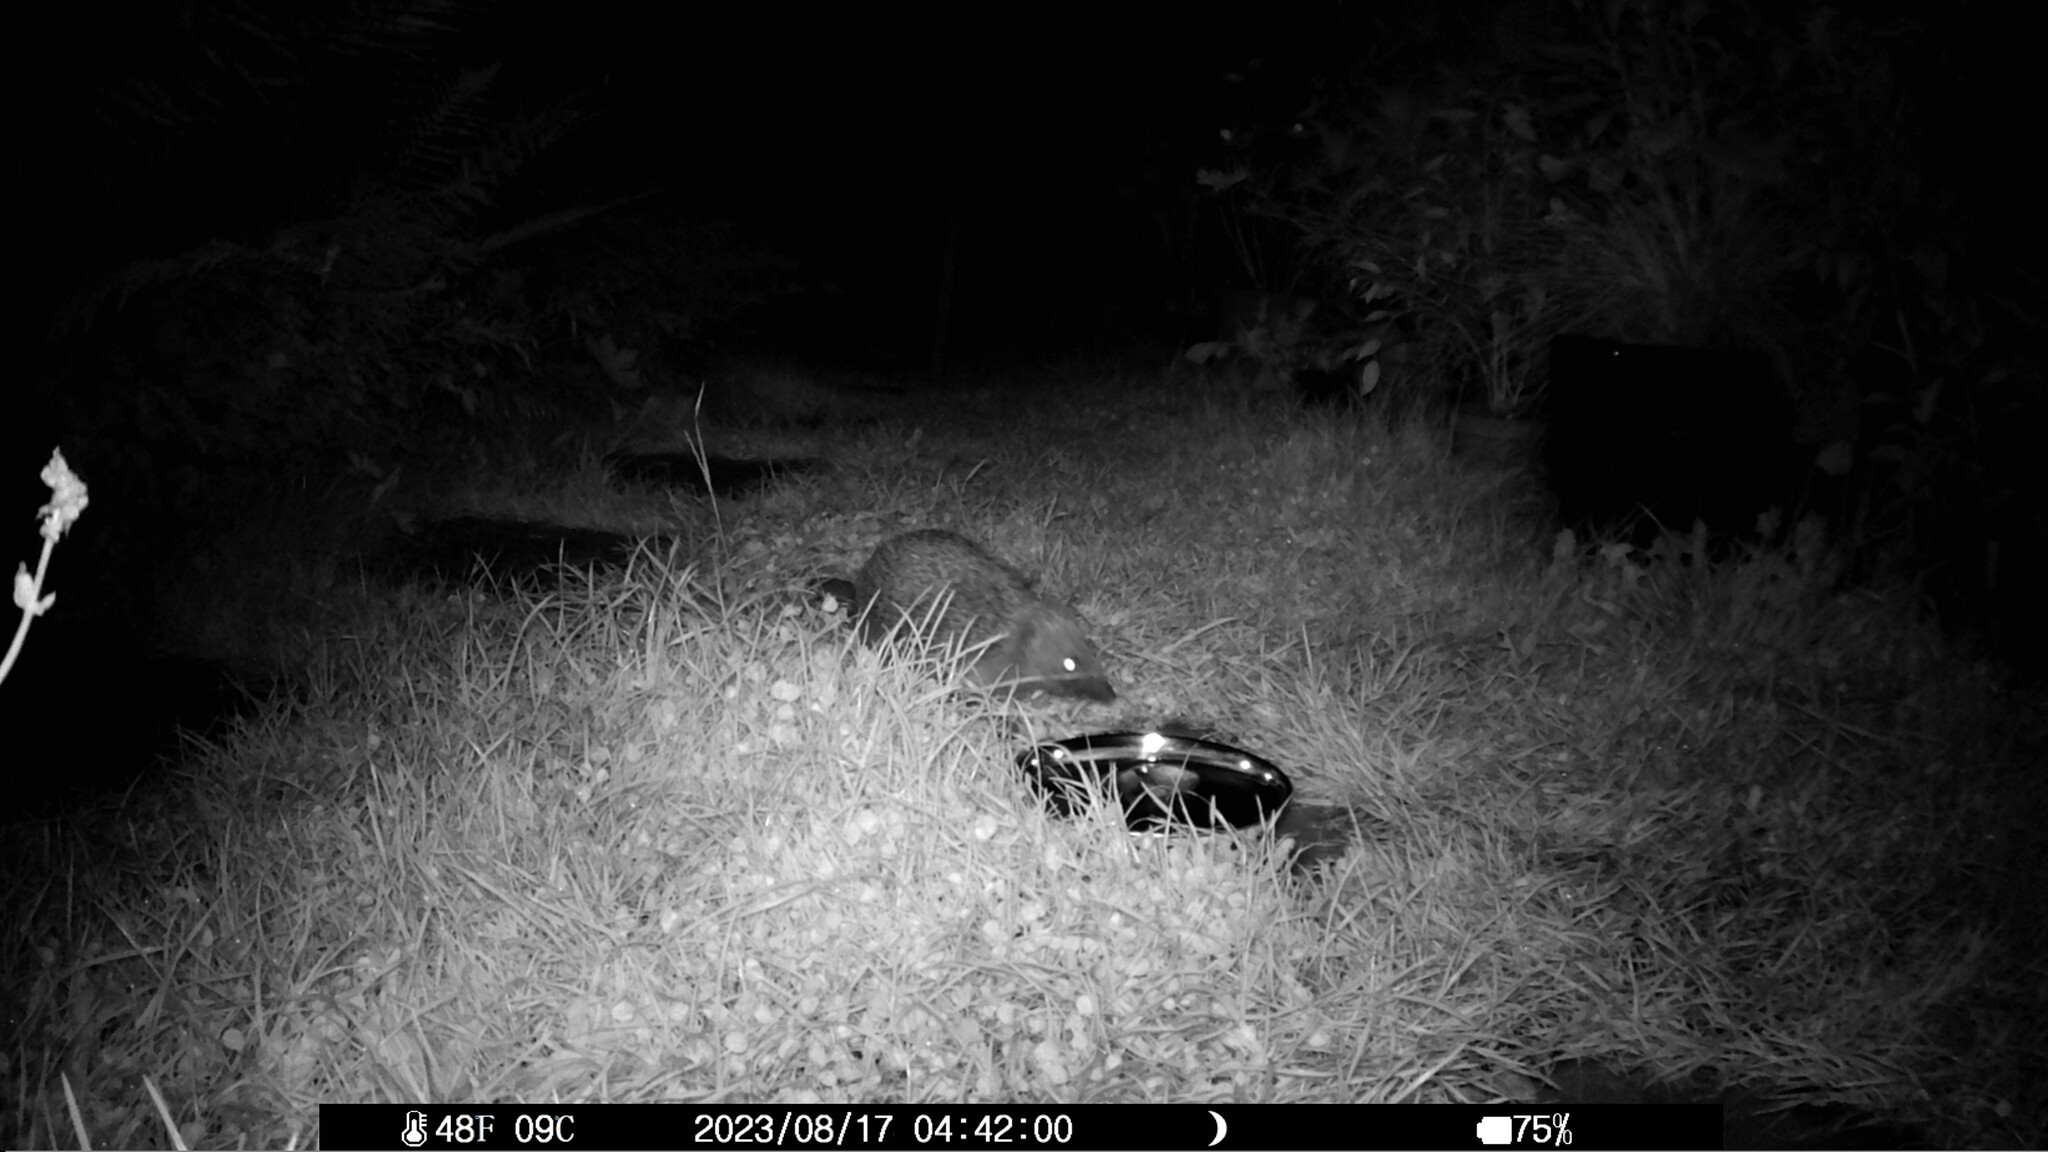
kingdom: Animalia
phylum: Chordata
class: Mammalia
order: Erinaceomorpha
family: Erinaceidae
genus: Erinaceus
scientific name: Erinaceus europaeus
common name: West european hedgehog
